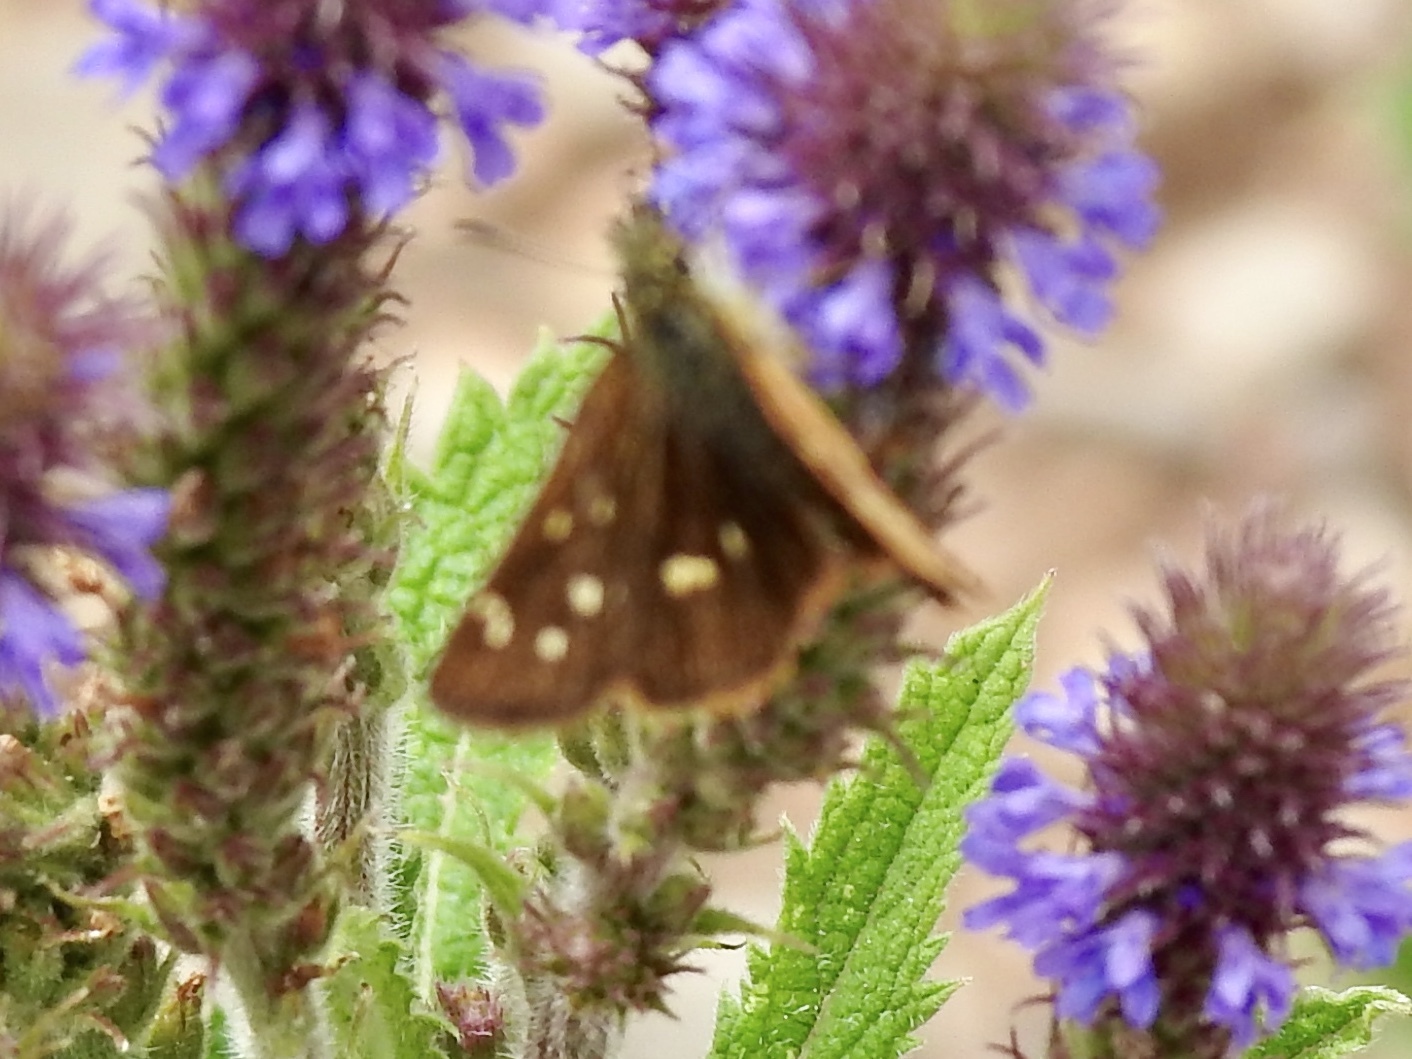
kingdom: Animalia
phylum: Arthropoda
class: Insecta
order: Lepidoptera
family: Hesperiidae
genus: Piruna
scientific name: Piruna polingii
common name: Four-spotted skipperling
